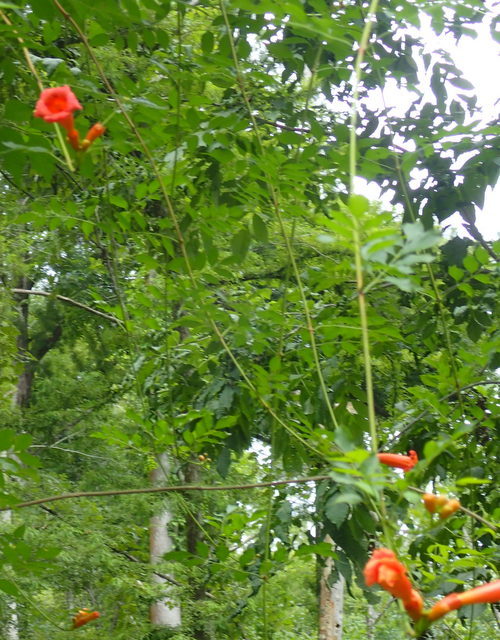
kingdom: Plantae
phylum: Tracheophyta
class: Magnoliopsida
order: Lamiales
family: Bignoniaceae
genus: Campsis
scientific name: Campsis radicans
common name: Trumpet-creeper
